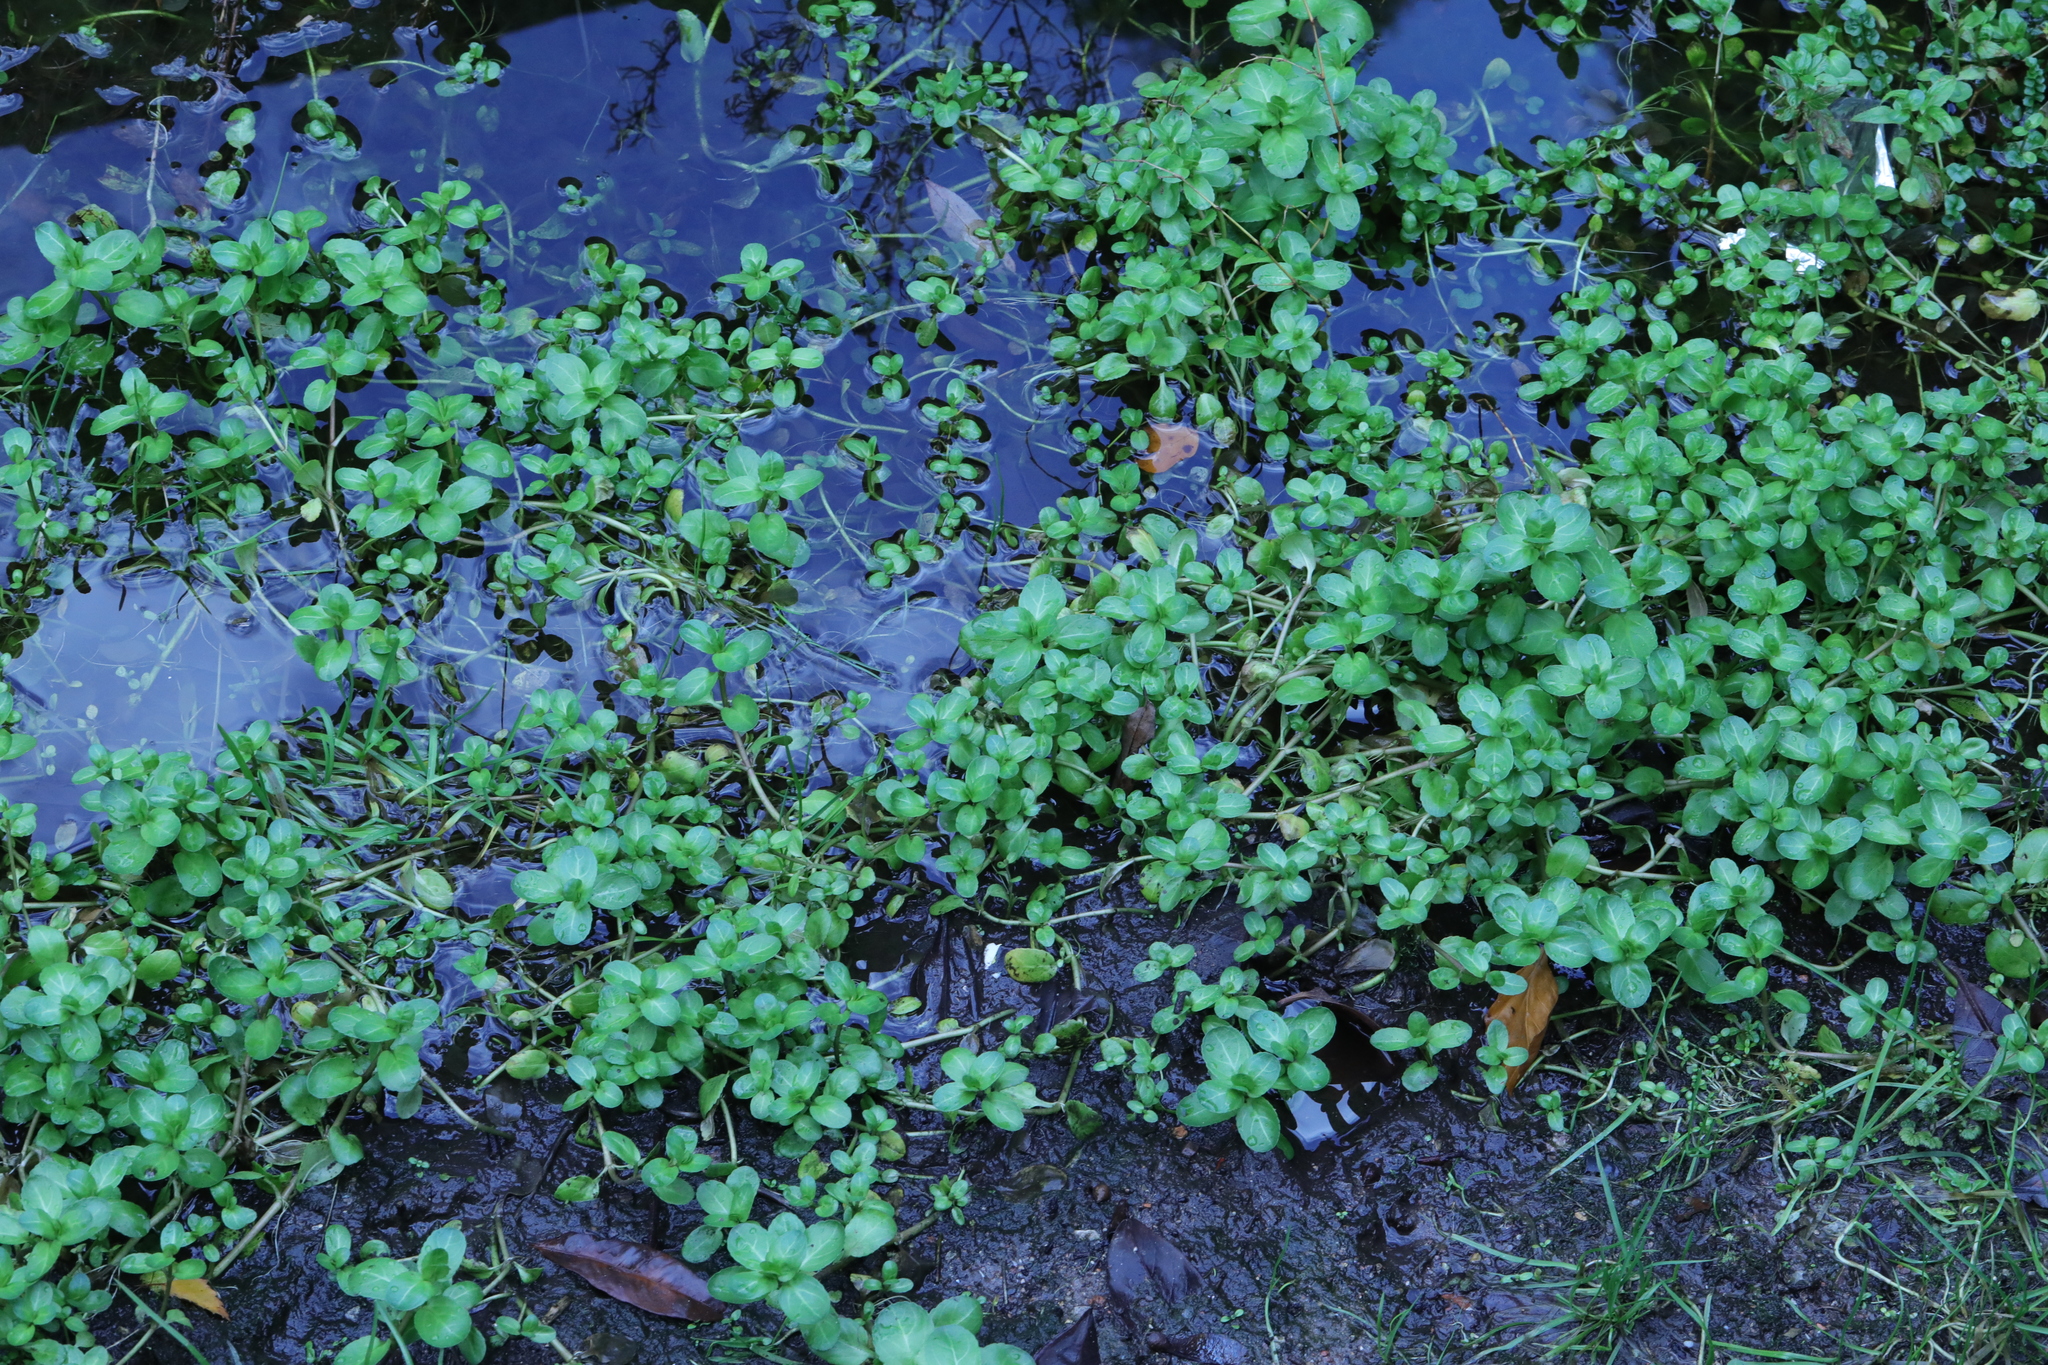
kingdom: Plantae
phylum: Tracheophyta
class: Magnoliopsida
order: Lamiales
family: Plantaginaceae
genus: Veronica
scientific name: Veronica beccabunga
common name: Brooklime
